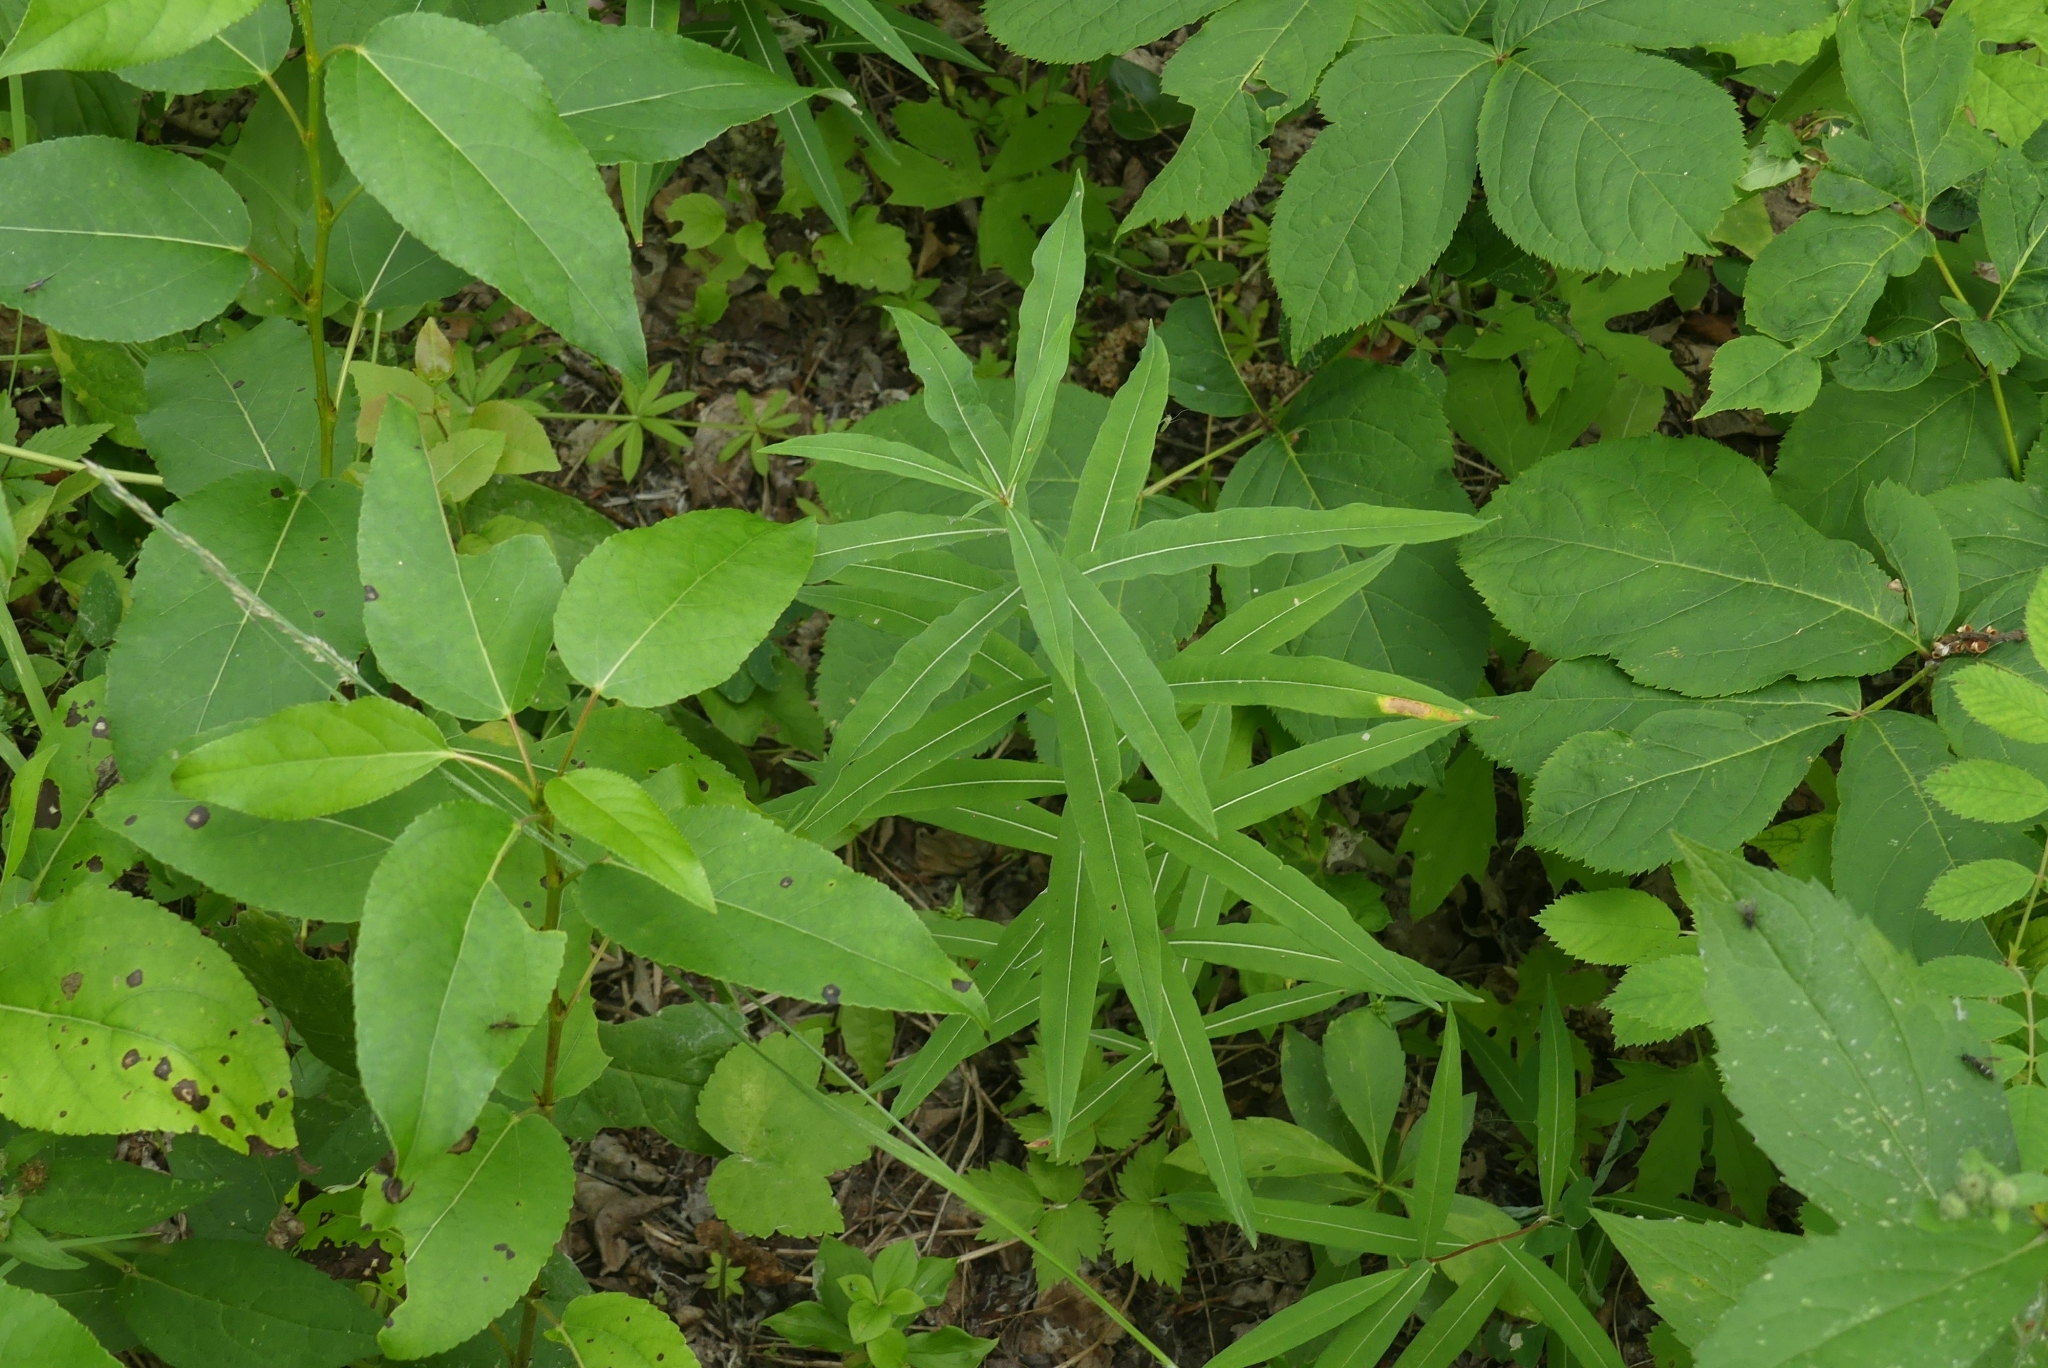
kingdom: Plantae
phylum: Tracheophyta
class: Magnoliopsida
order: Myrtales
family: Onagraceae
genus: Chamaenerion
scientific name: Chamaenerion angustifolium
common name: Fireweed
